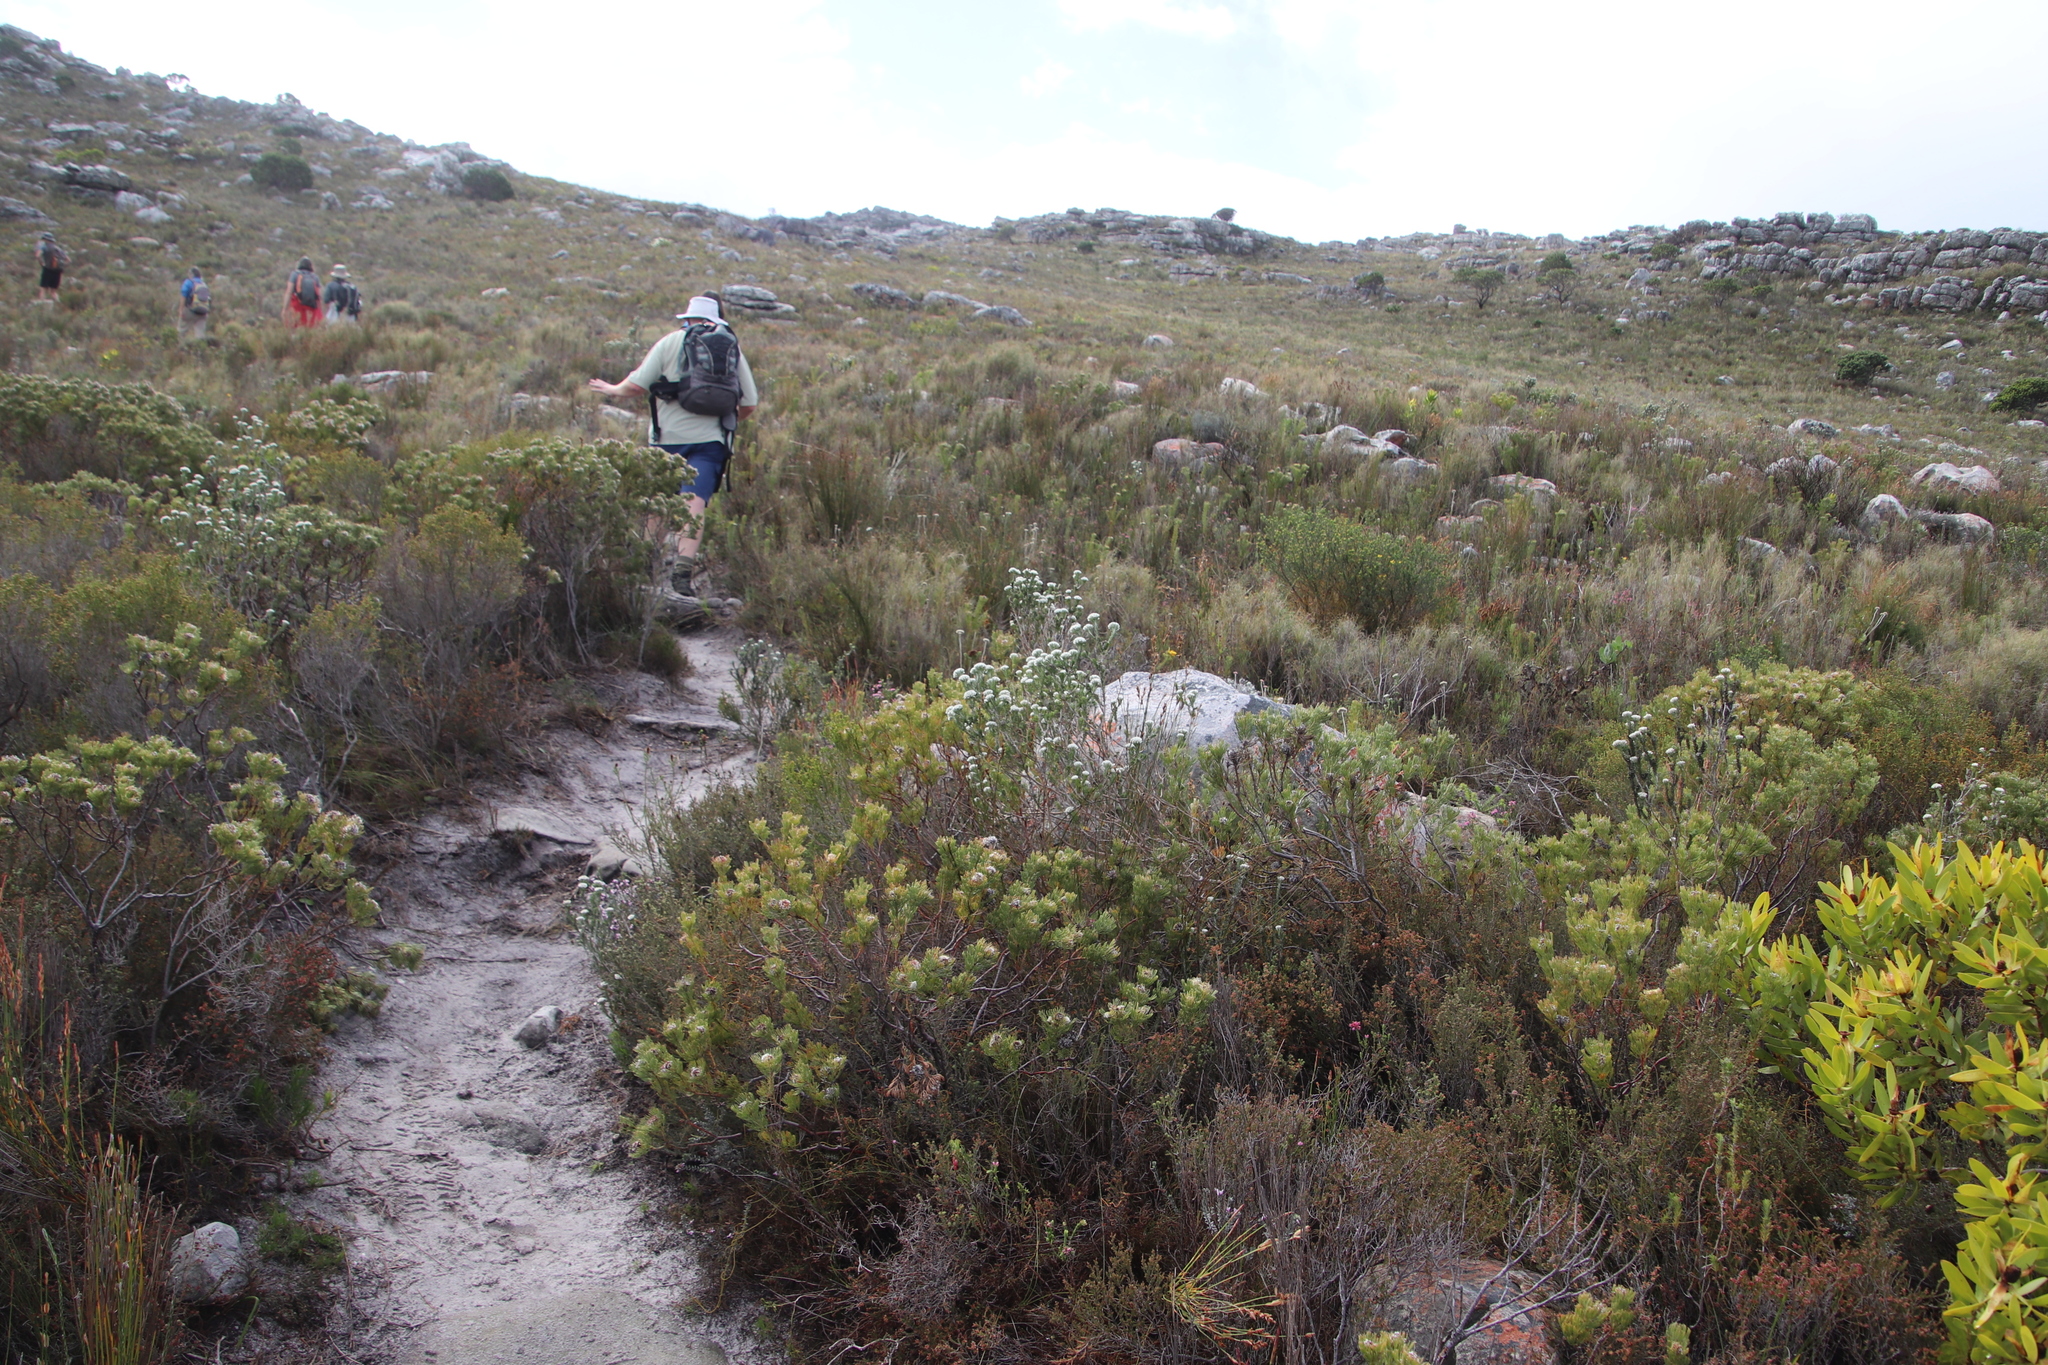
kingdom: Plantae
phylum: Tracheophyta
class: Magnoliopsida
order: Proteales
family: Proteaceae
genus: Serruria
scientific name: Serruria villosa
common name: Golden spiderhead
